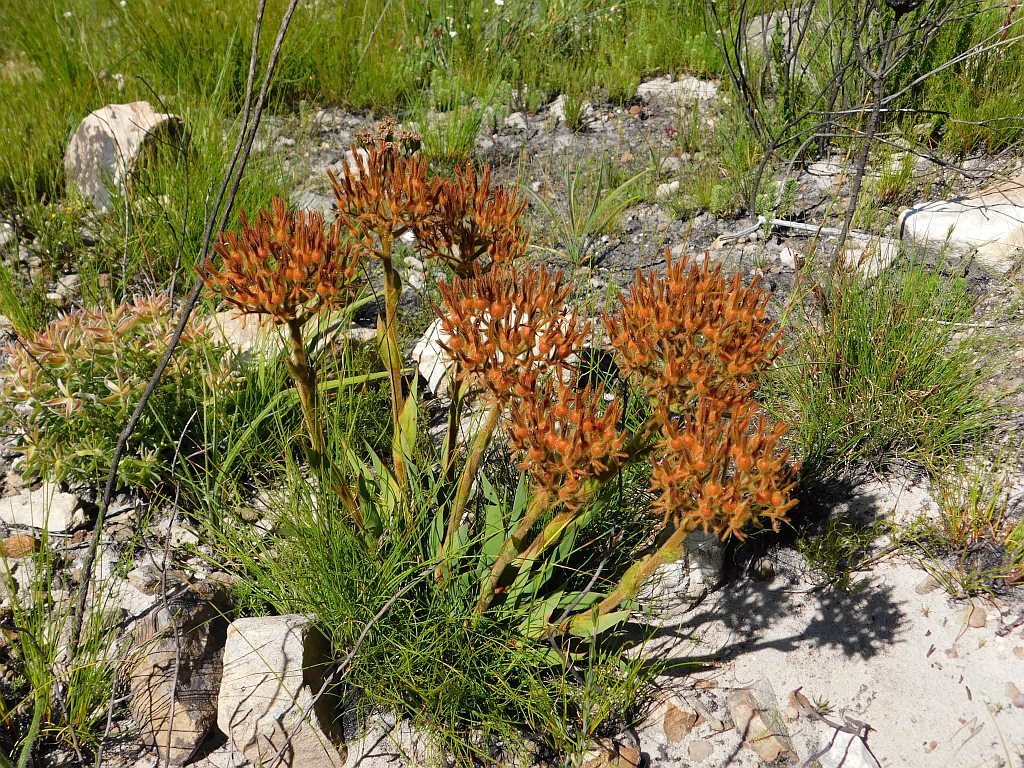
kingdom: Plantae
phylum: Tracheophyta
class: Liliopsida
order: Commelinales
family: Haemodoraceae
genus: Dilatris
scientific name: Dilatris viscosa
